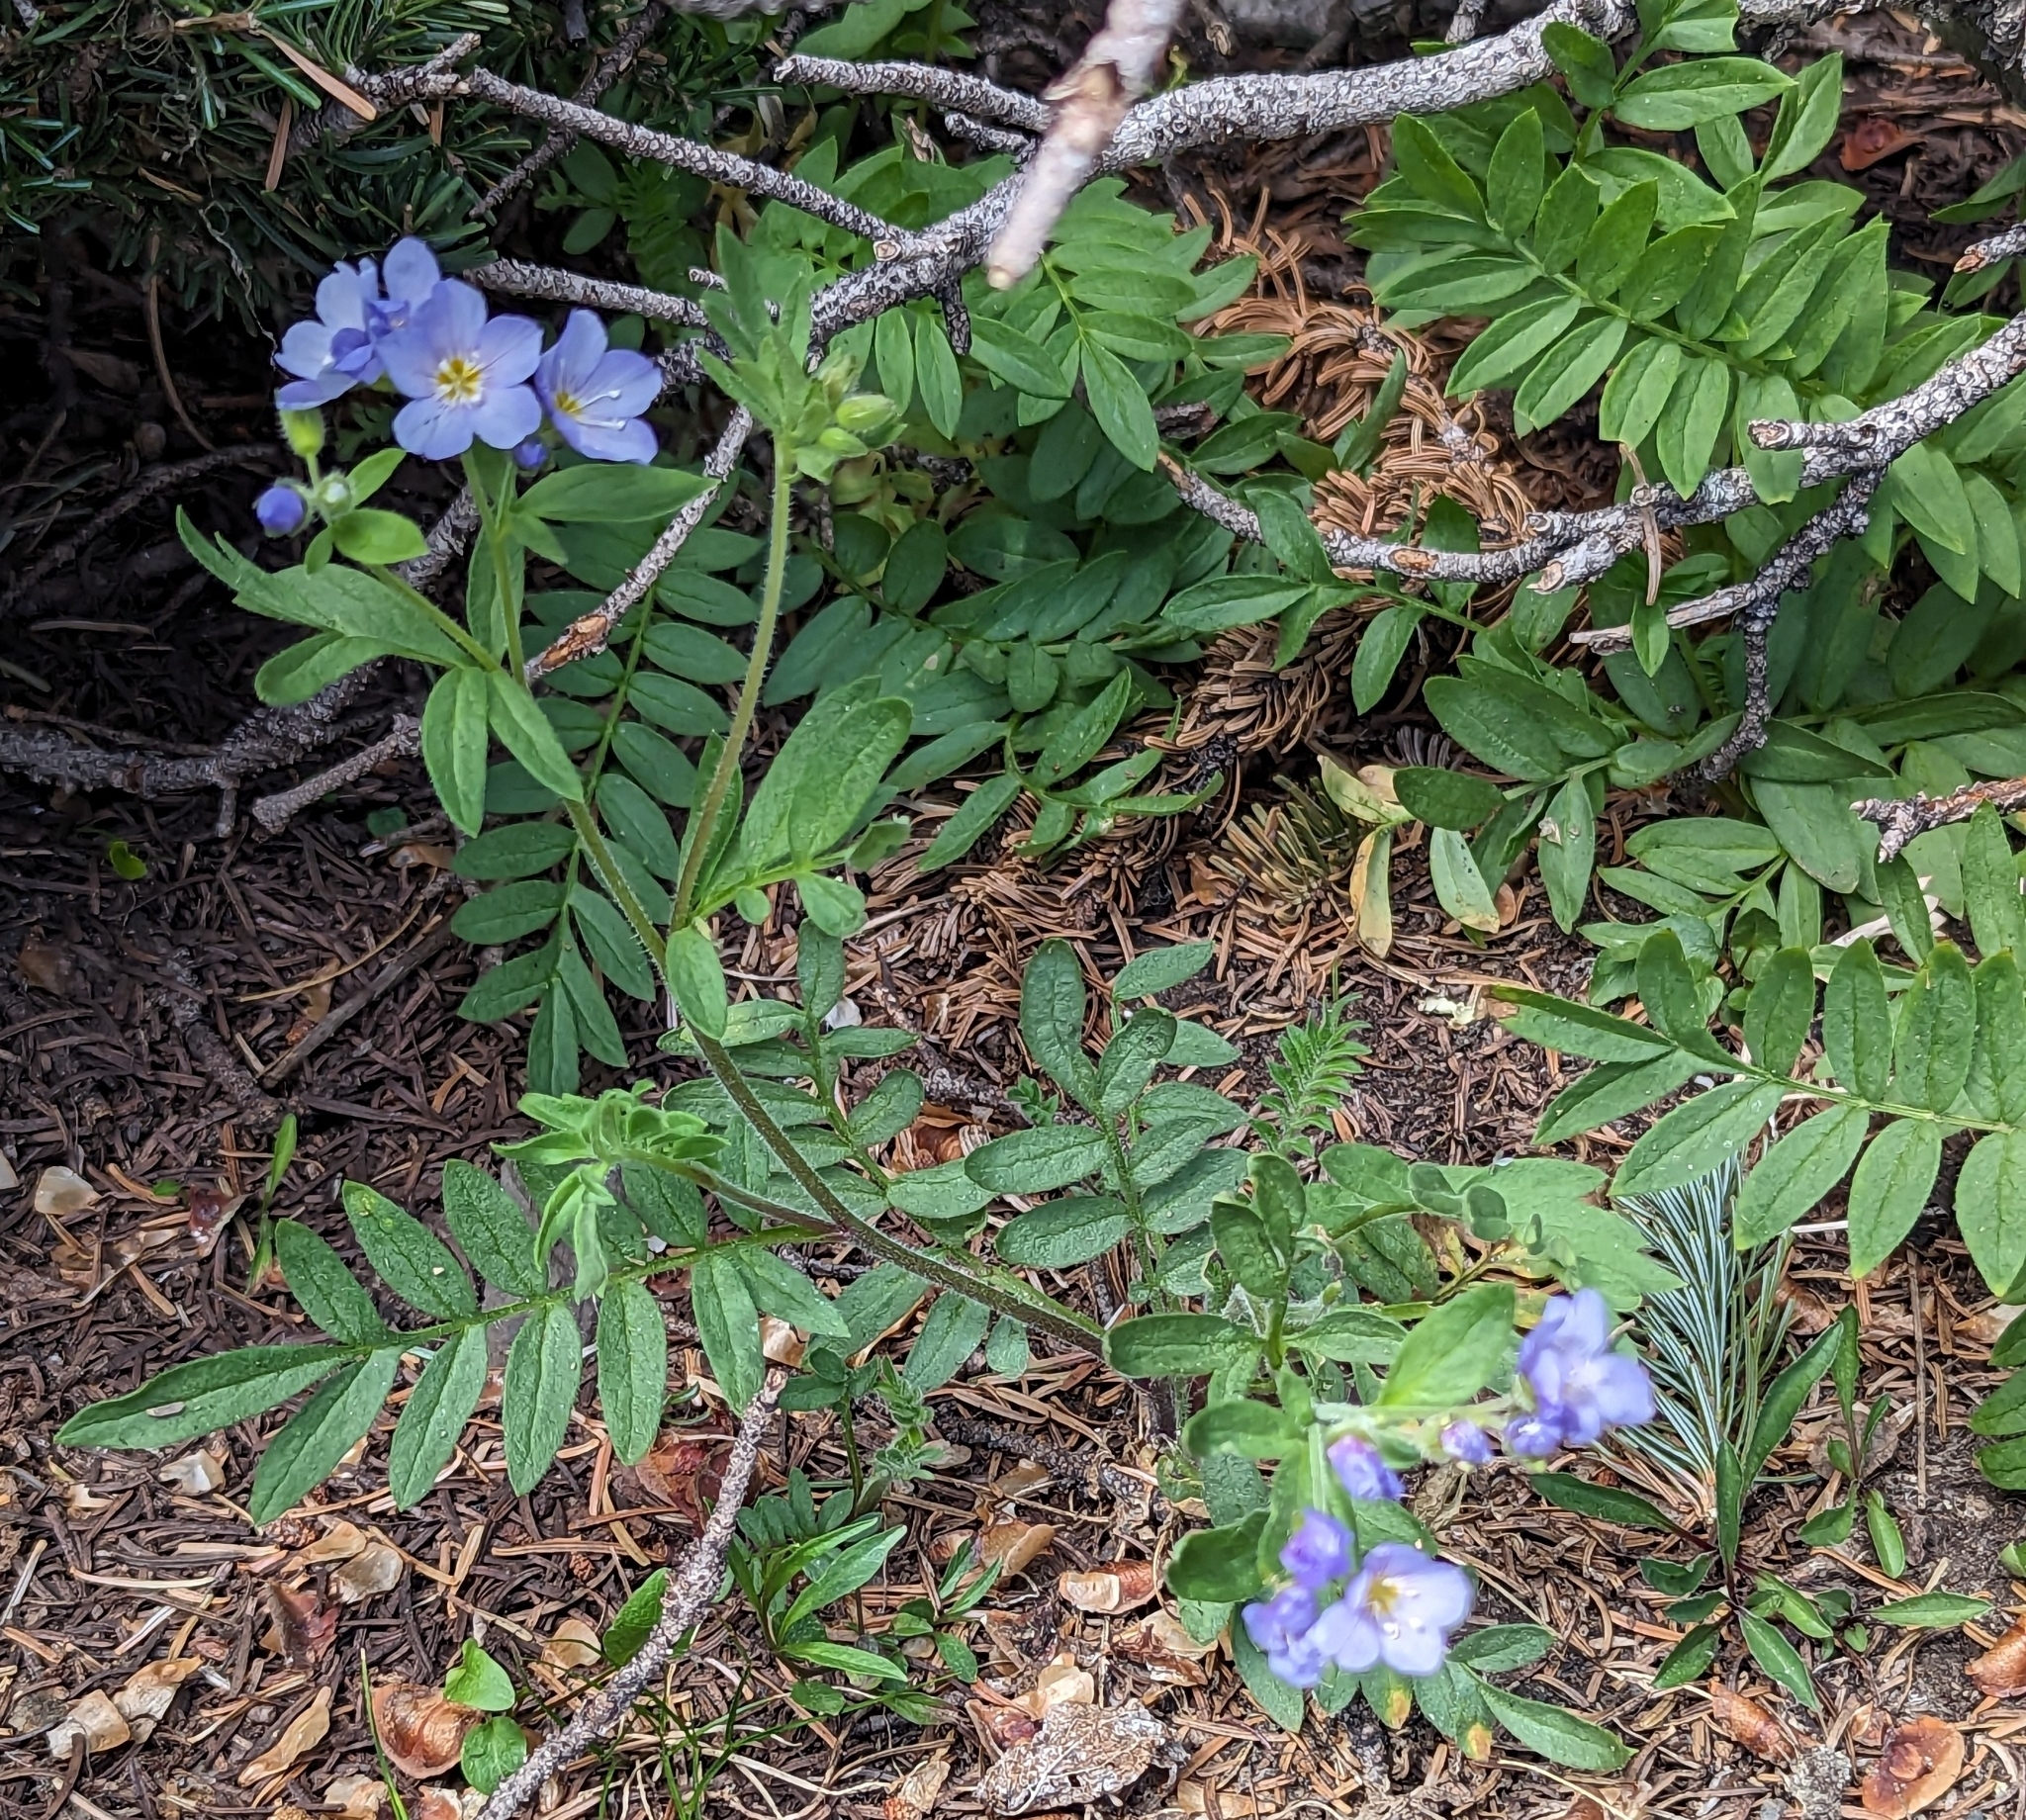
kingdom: Plantae
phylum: Tracheophyta
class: Magnoliopsida
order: Ericales
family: Polemoniaceae
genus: Polemonium
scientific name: Polemonium californicum
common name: California jacob's ladder
